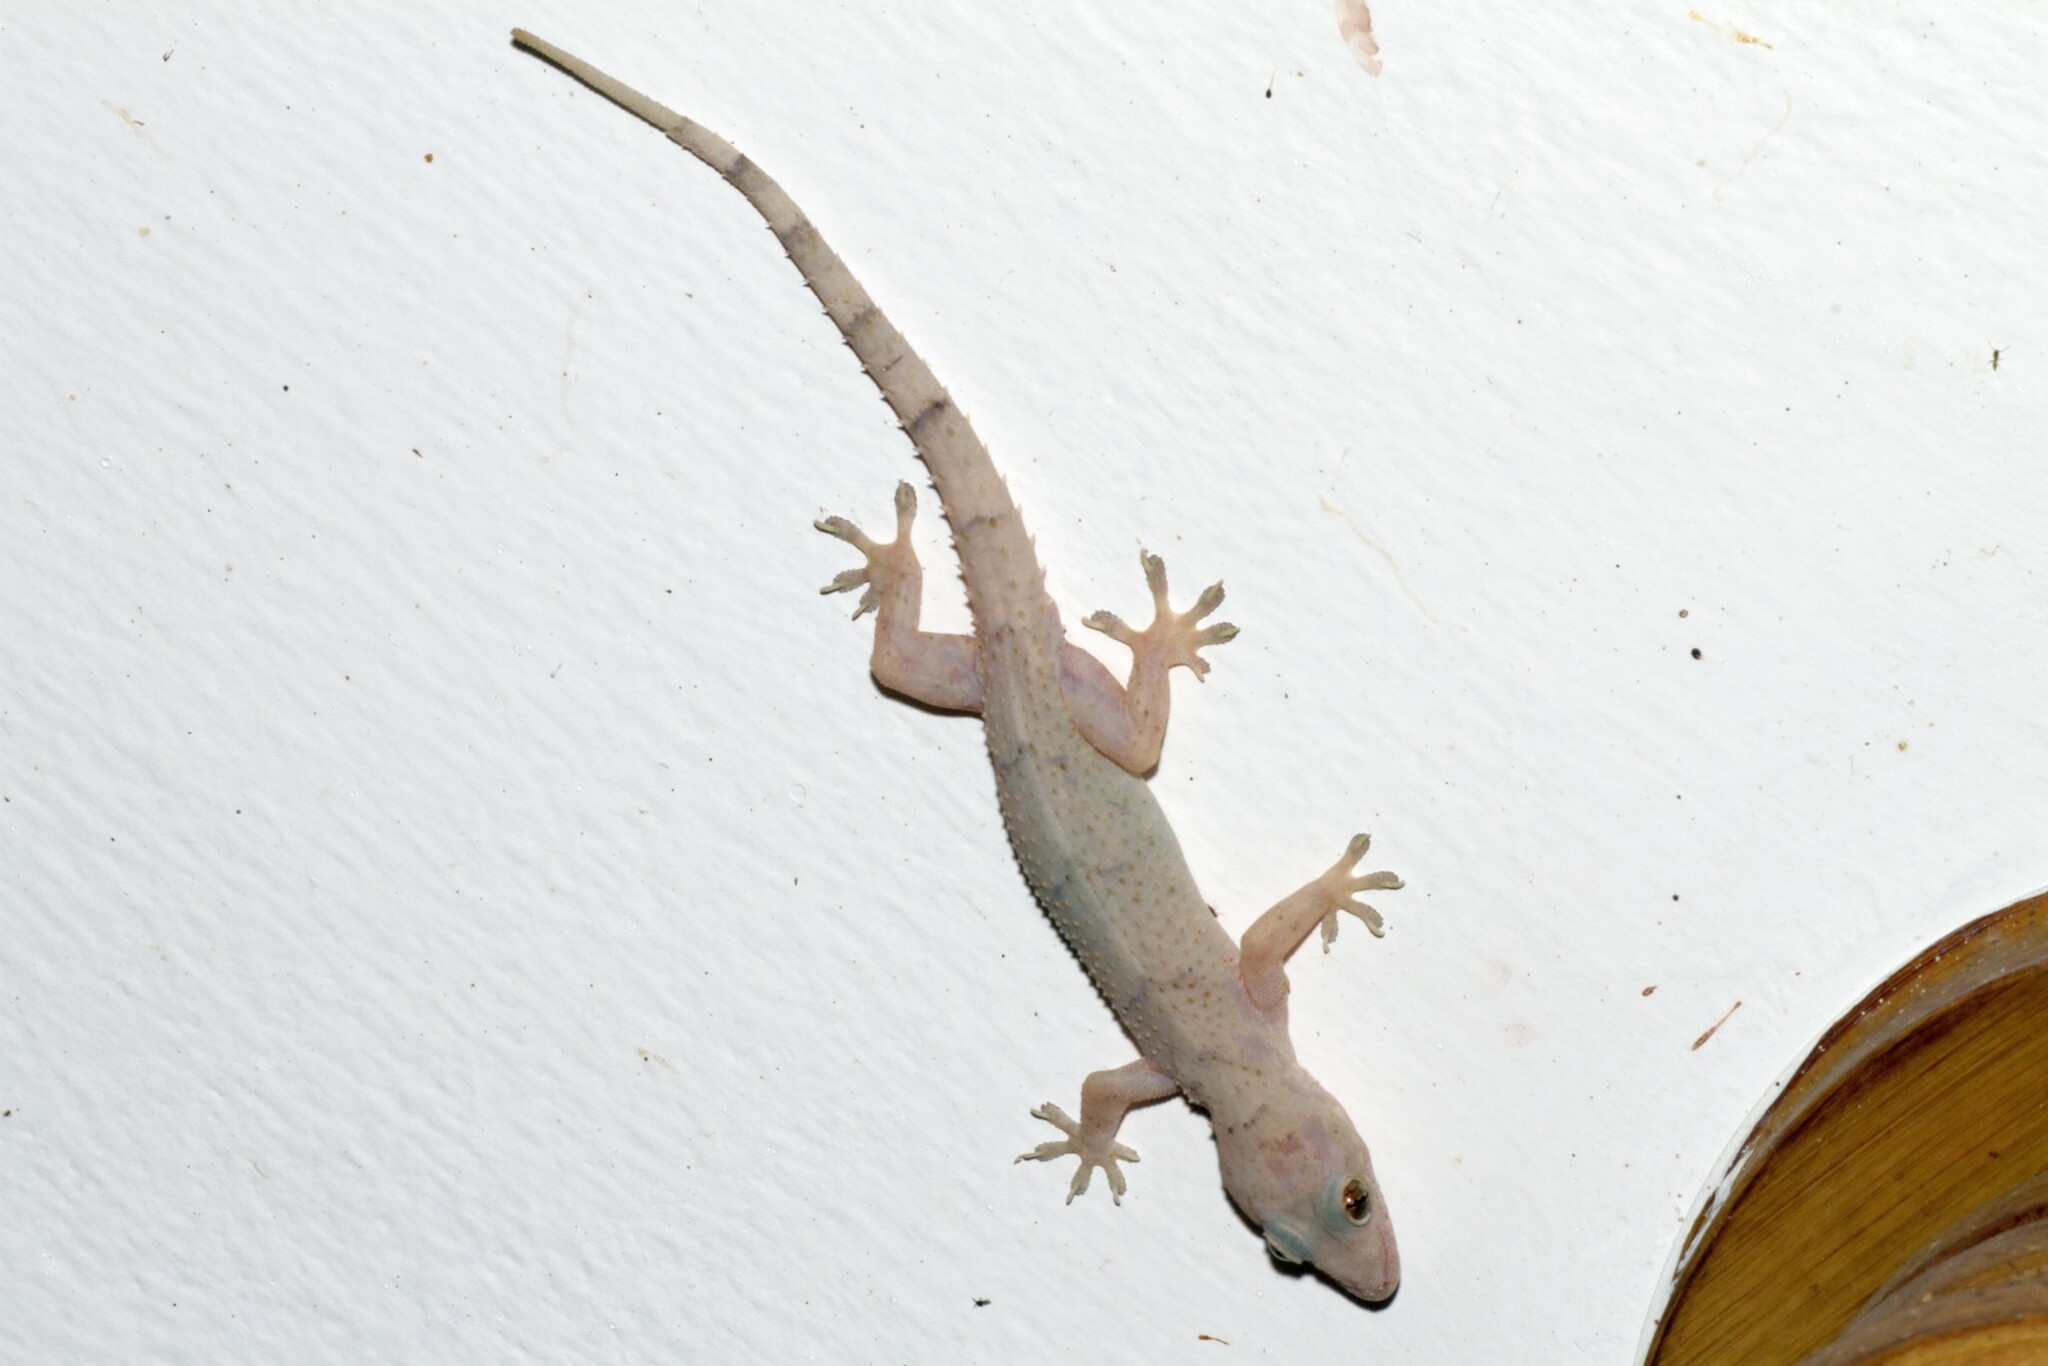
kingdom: Animalia
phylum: Chordata
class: Squamata
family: Gekkonidae
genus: Hemidactylus
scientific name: Hemidactylus mabouia
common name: House gecko
